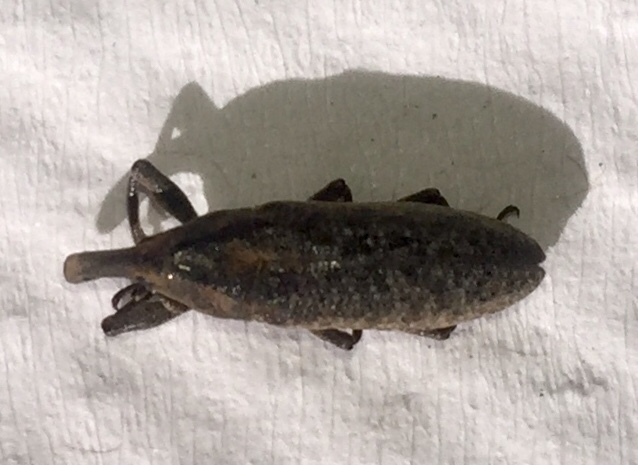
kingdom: Animalia
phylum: Arthropoda
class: Insecta
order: Coleoptera
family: Curculionidae
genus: Lixus
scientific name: Lixus concavus
